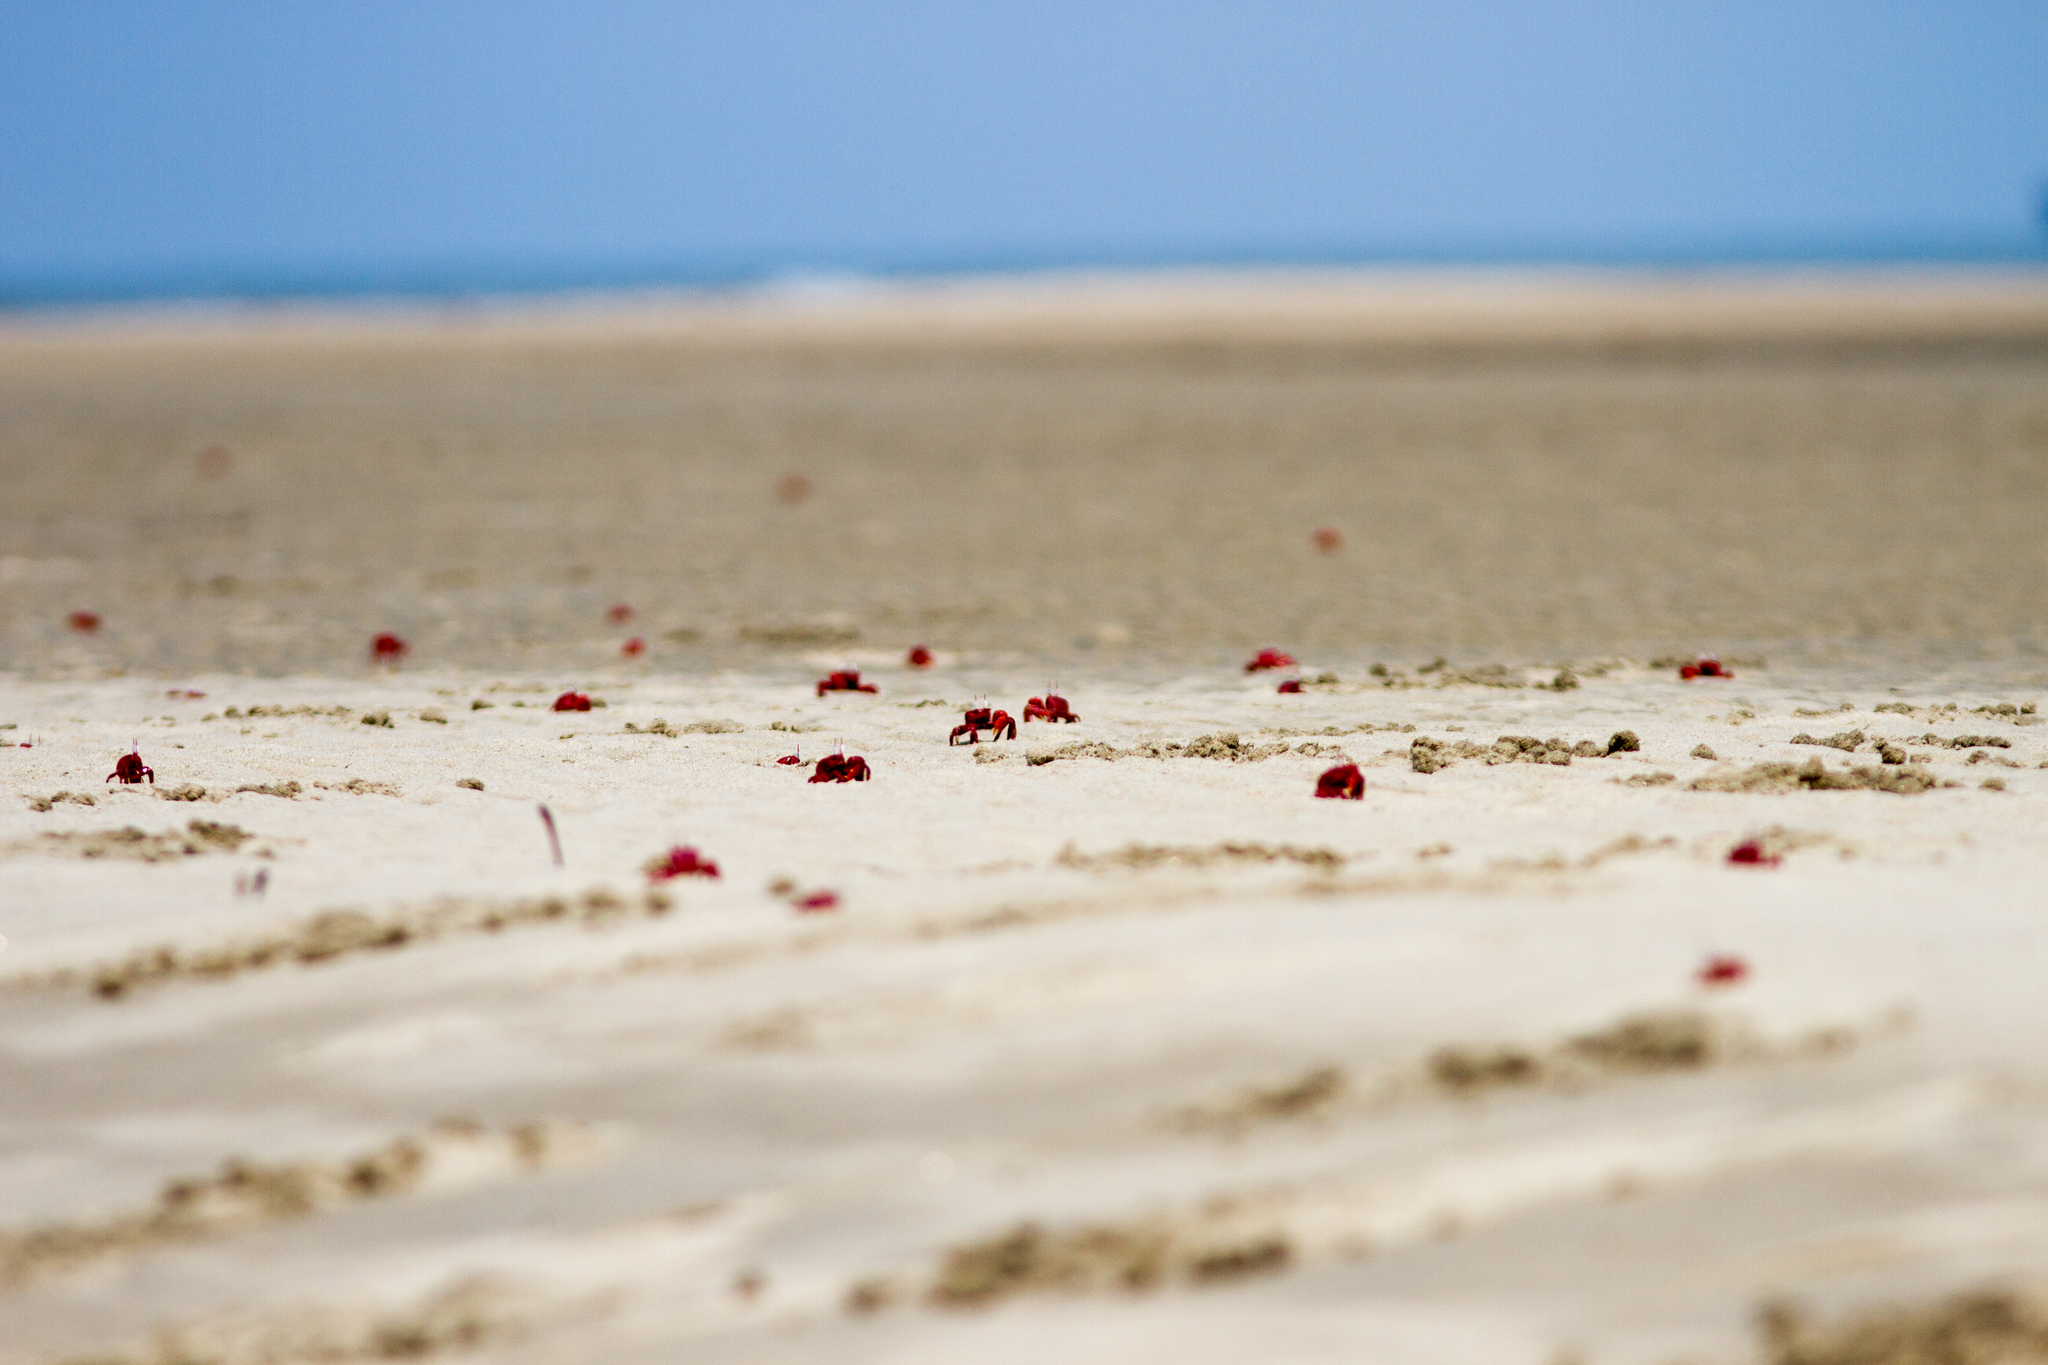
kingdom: Animalia
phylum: Arthropoda
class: Malacostraca
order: Decapoda
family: Ocypodidae
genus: Ocypode
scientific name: Ocypode macrocera
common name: Red ghost crab
